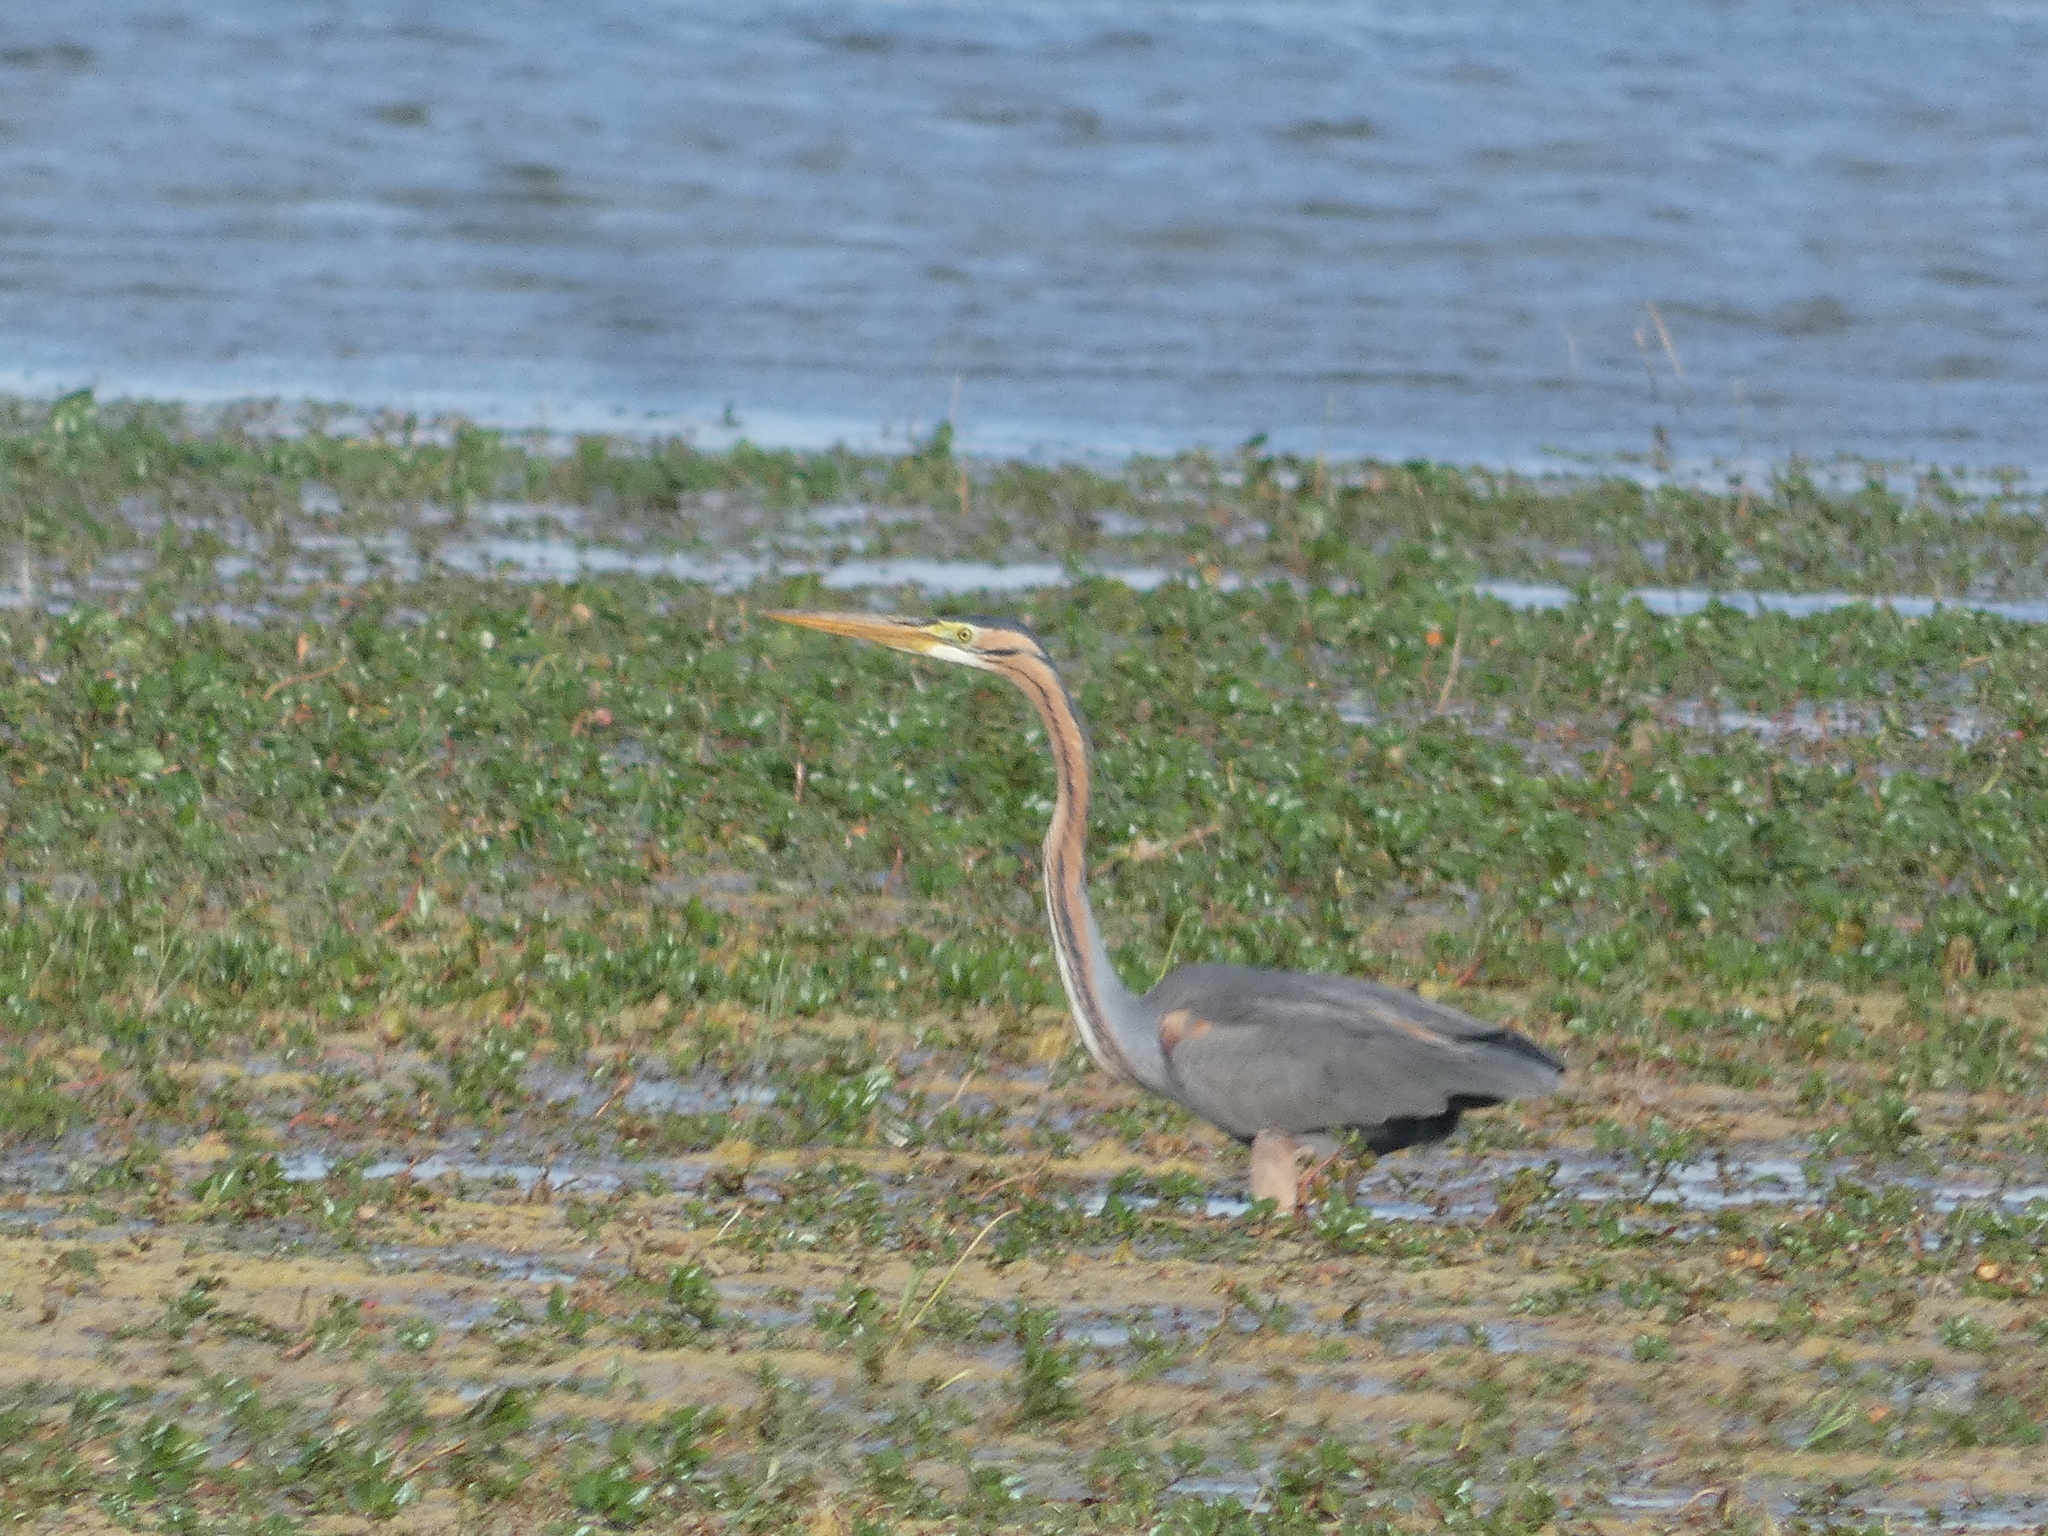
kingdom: Animalia
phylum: Chordata
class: Aves
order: Pelecaniformes
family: Ardeidae
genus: Ardea
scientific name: Ardea purpurea
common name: Purple heron
